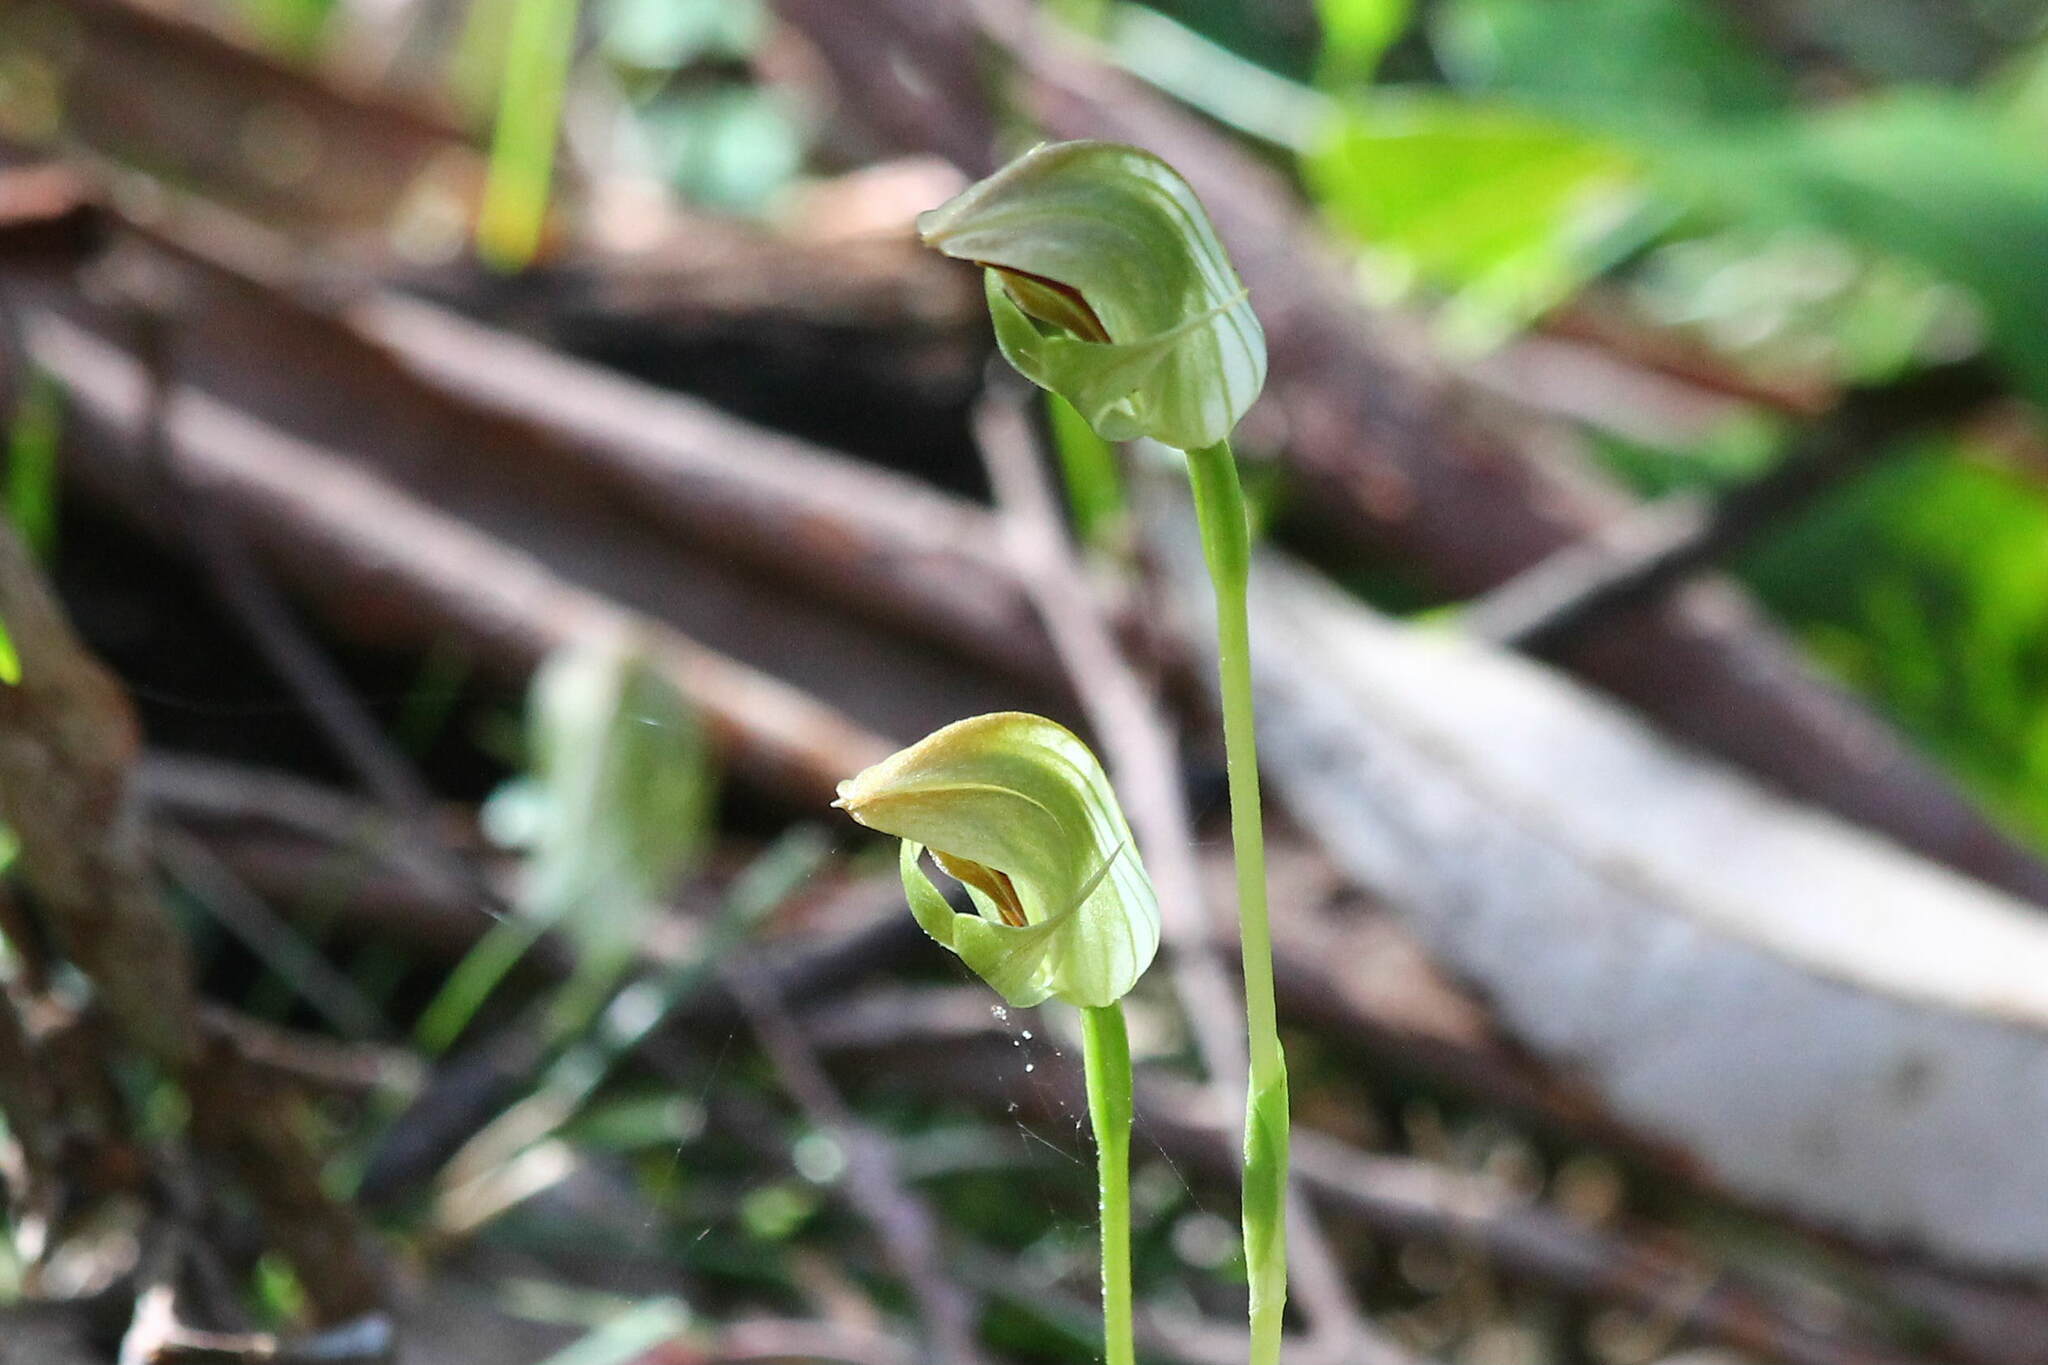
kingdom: Plantae
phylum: Tracheophyta
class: Liliopsida
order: Asparagales
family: Orchidaceae
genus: Pterostylis
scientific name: Pterostylis curta
